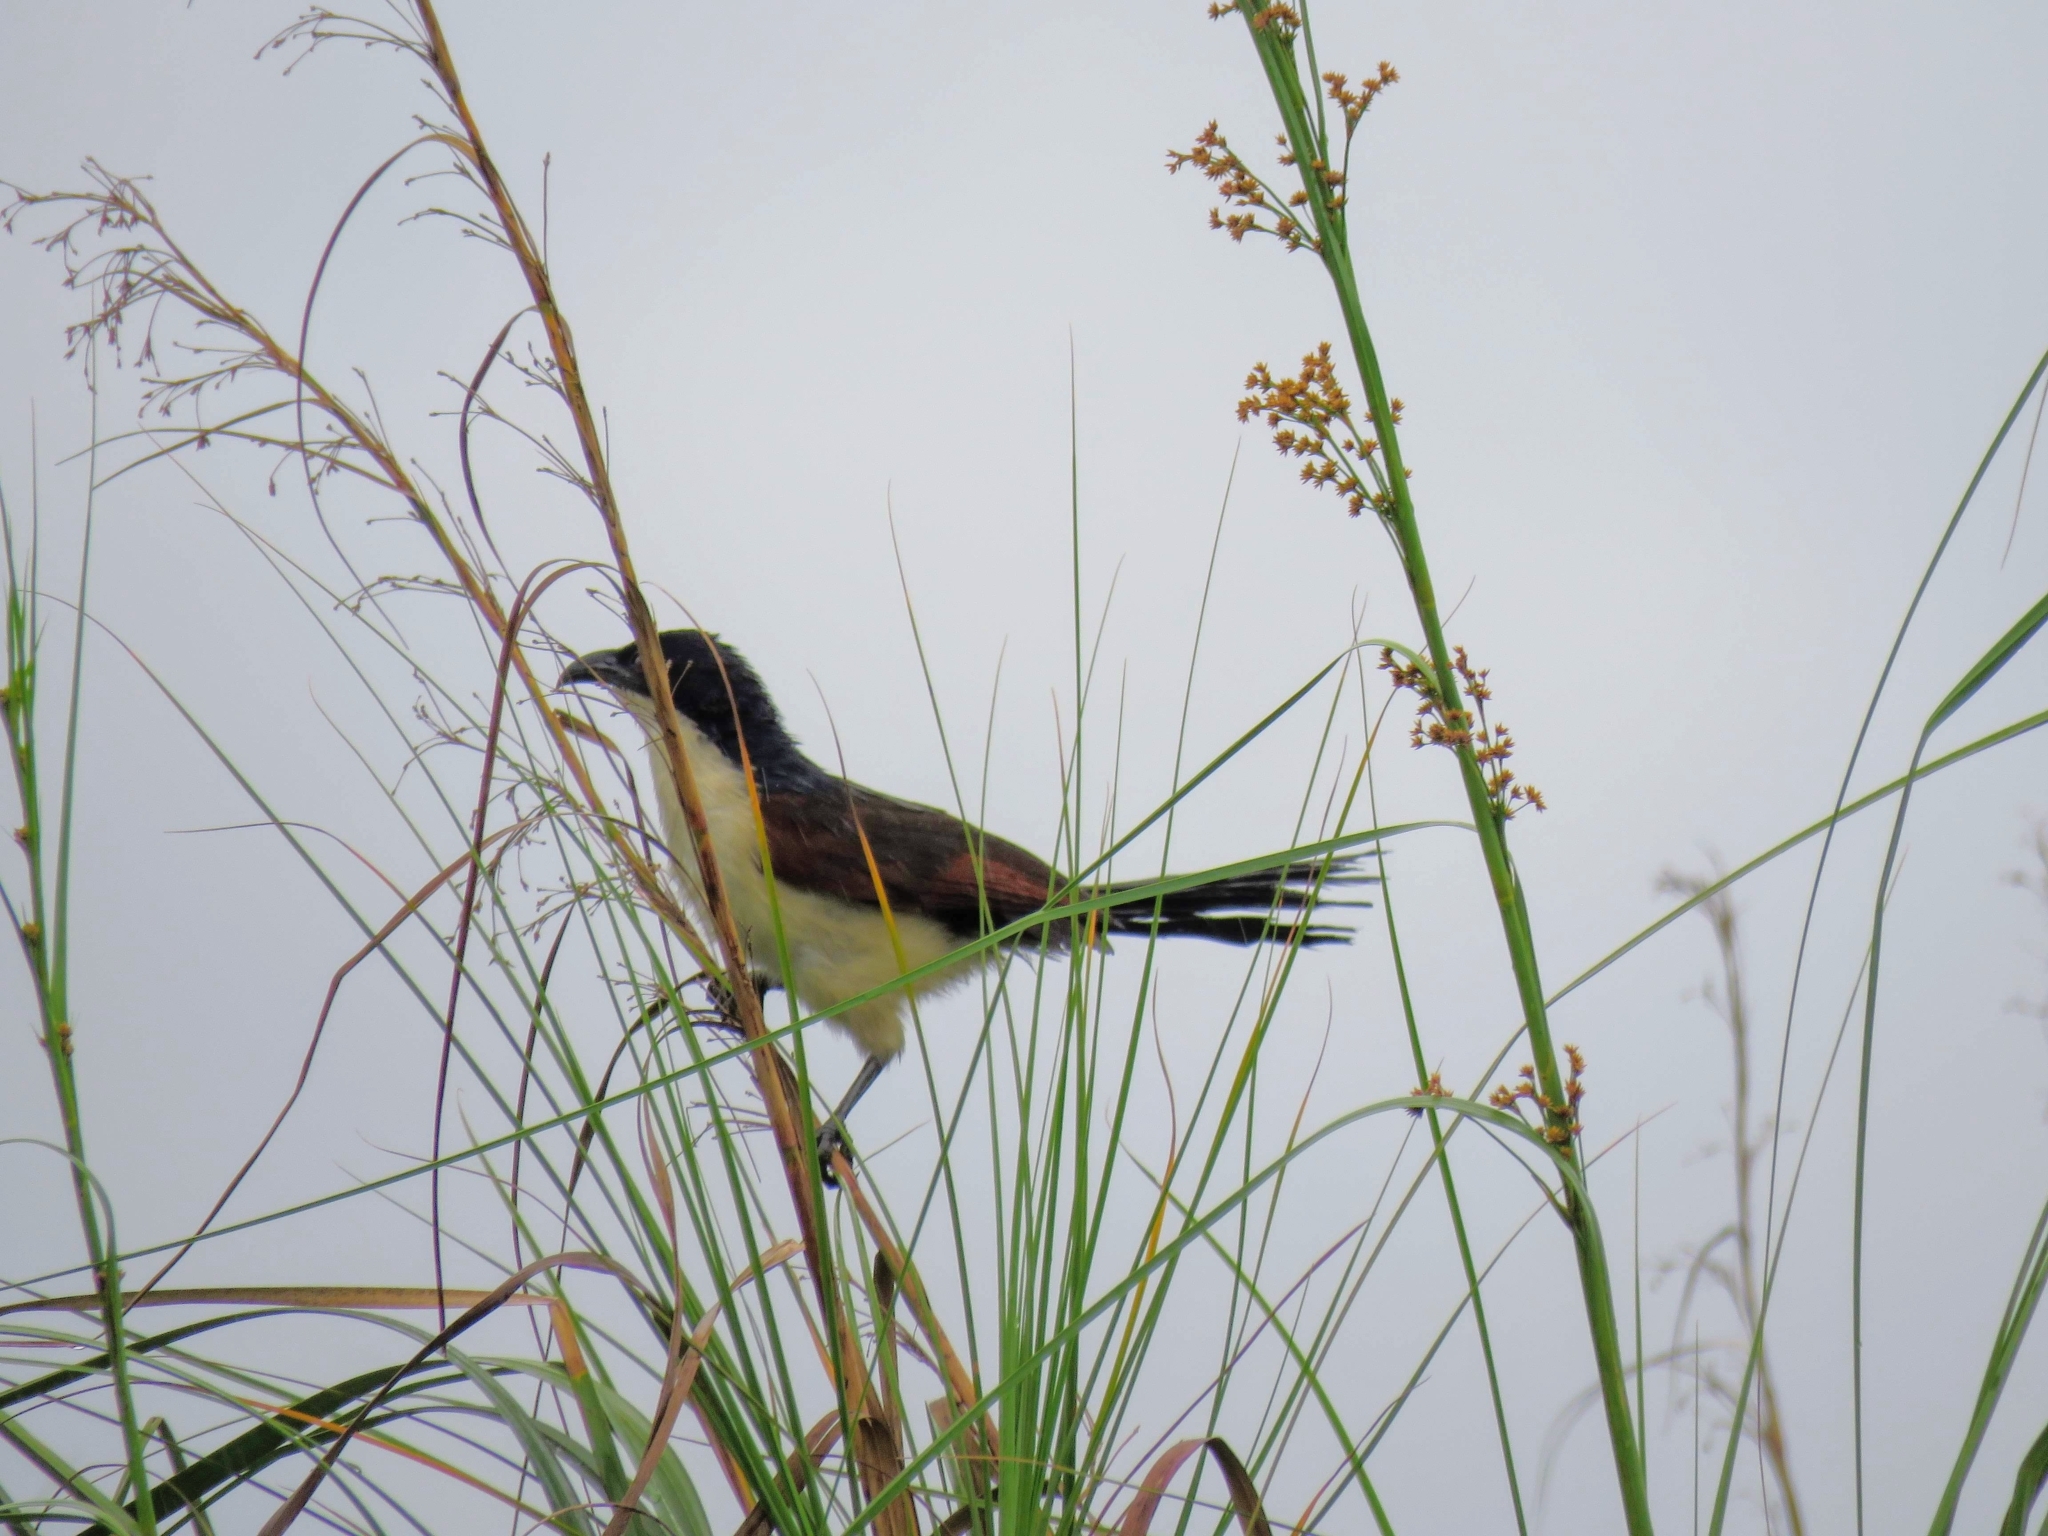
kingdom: Animalia
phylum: Chordata
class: Aves
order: Cuculiformes
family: Cuculidae
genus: Centropus
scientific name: Centropus monachus
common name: Blue-headed coucal
